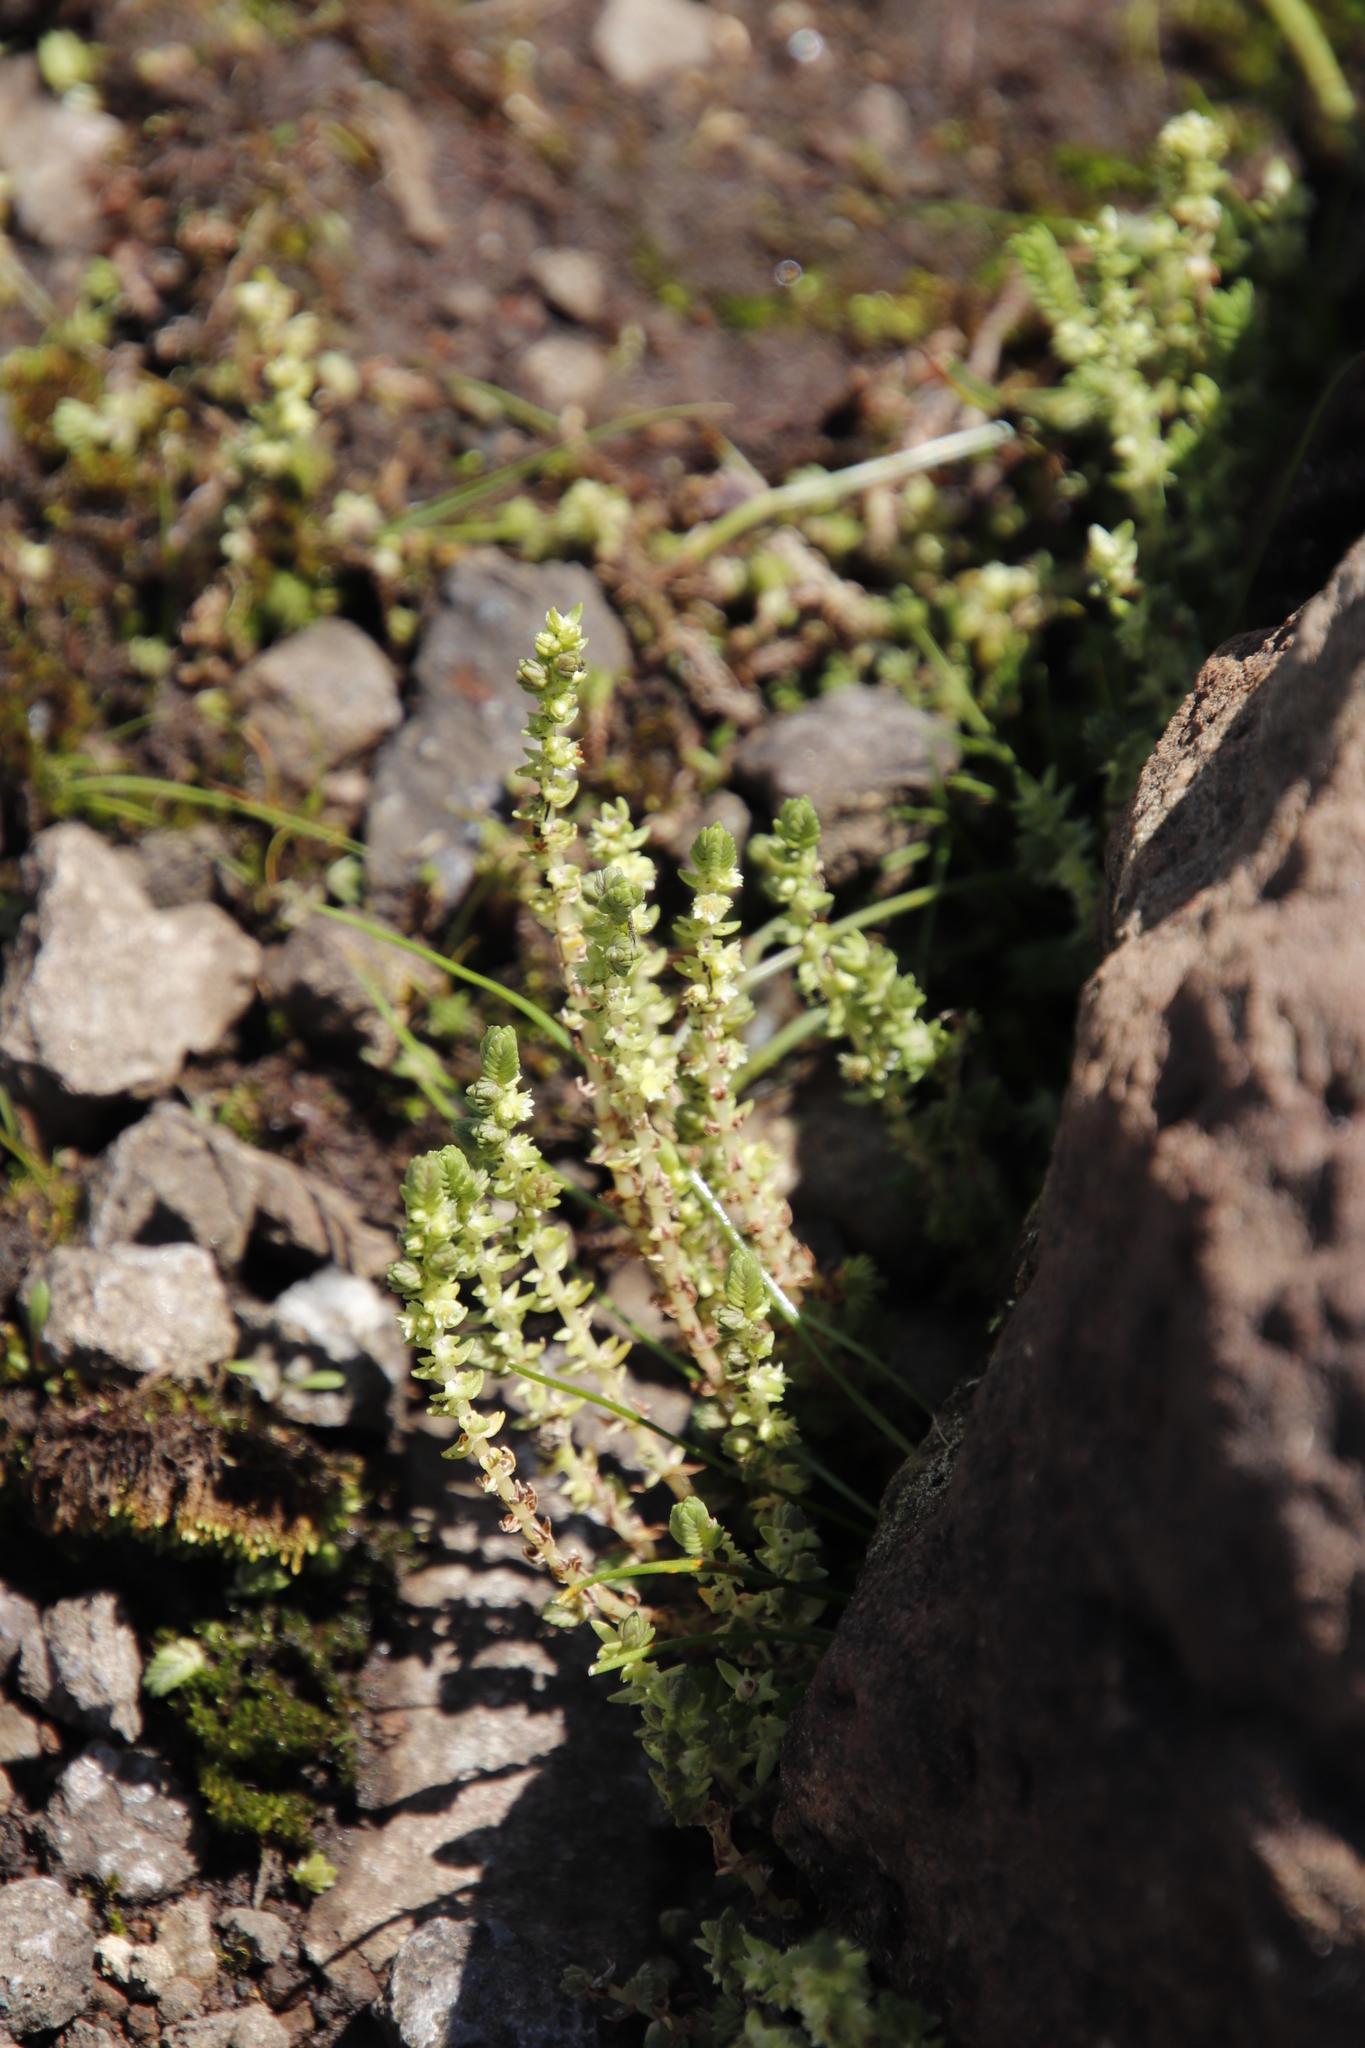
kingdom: Plantae
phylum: Tracheophyta
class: Magnoliopsida
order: Saxifragales
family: Crassulaceae
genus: Crassula
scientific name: Crassula lanceolata
